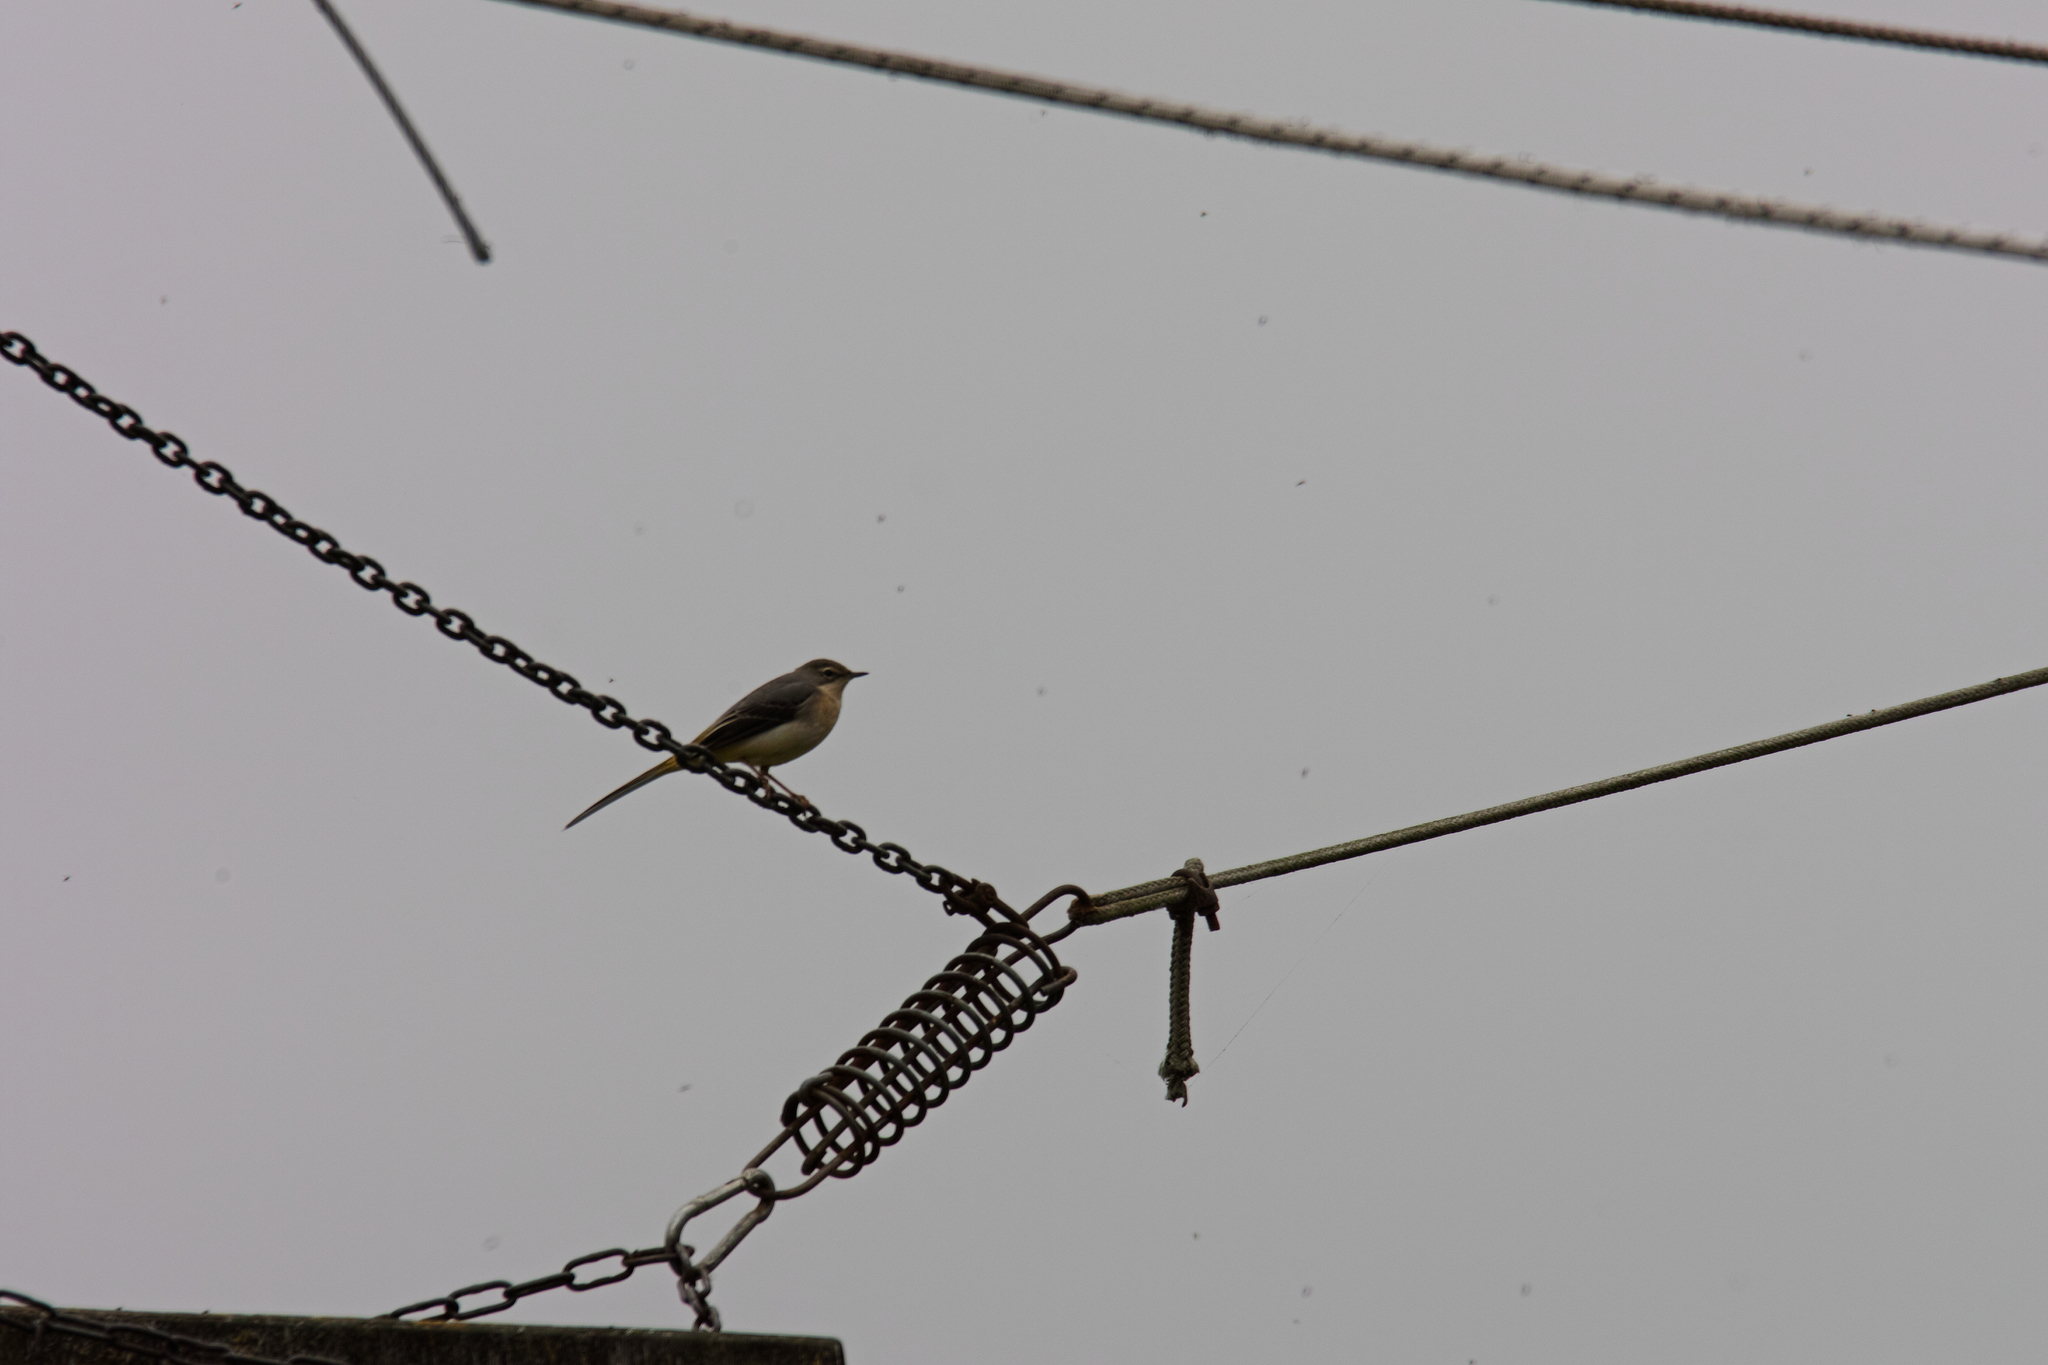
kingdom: Animalia
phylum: Chordata
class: Aves
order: Passeriformes
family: Motacillidae
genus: Motacilla
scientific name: Motacilla cinerea
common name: Grey wagtail
